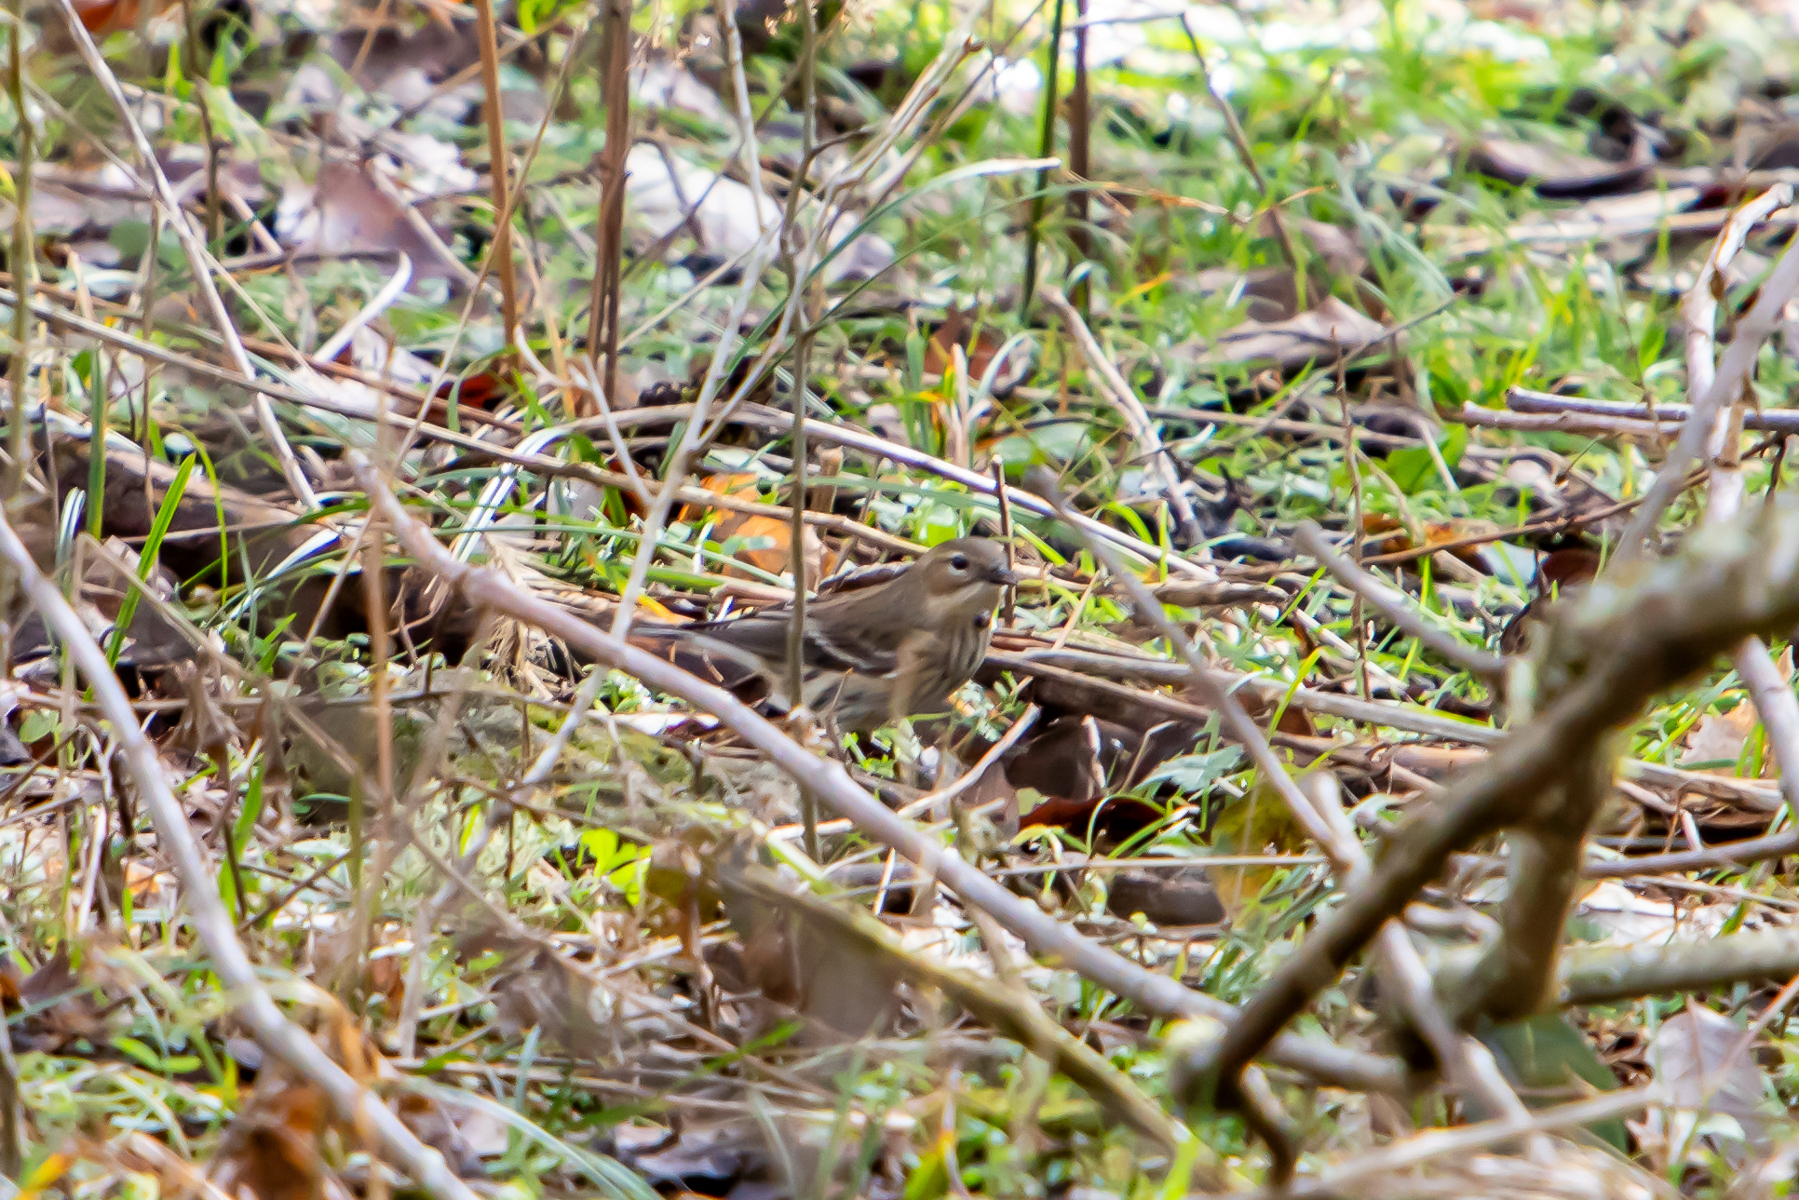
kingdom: Animalia
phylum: Chordata
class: Aves
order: Passeriformes
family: Parulidae
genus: Setophaga
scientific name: Setophaga coronata
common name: Myrtle warbler
